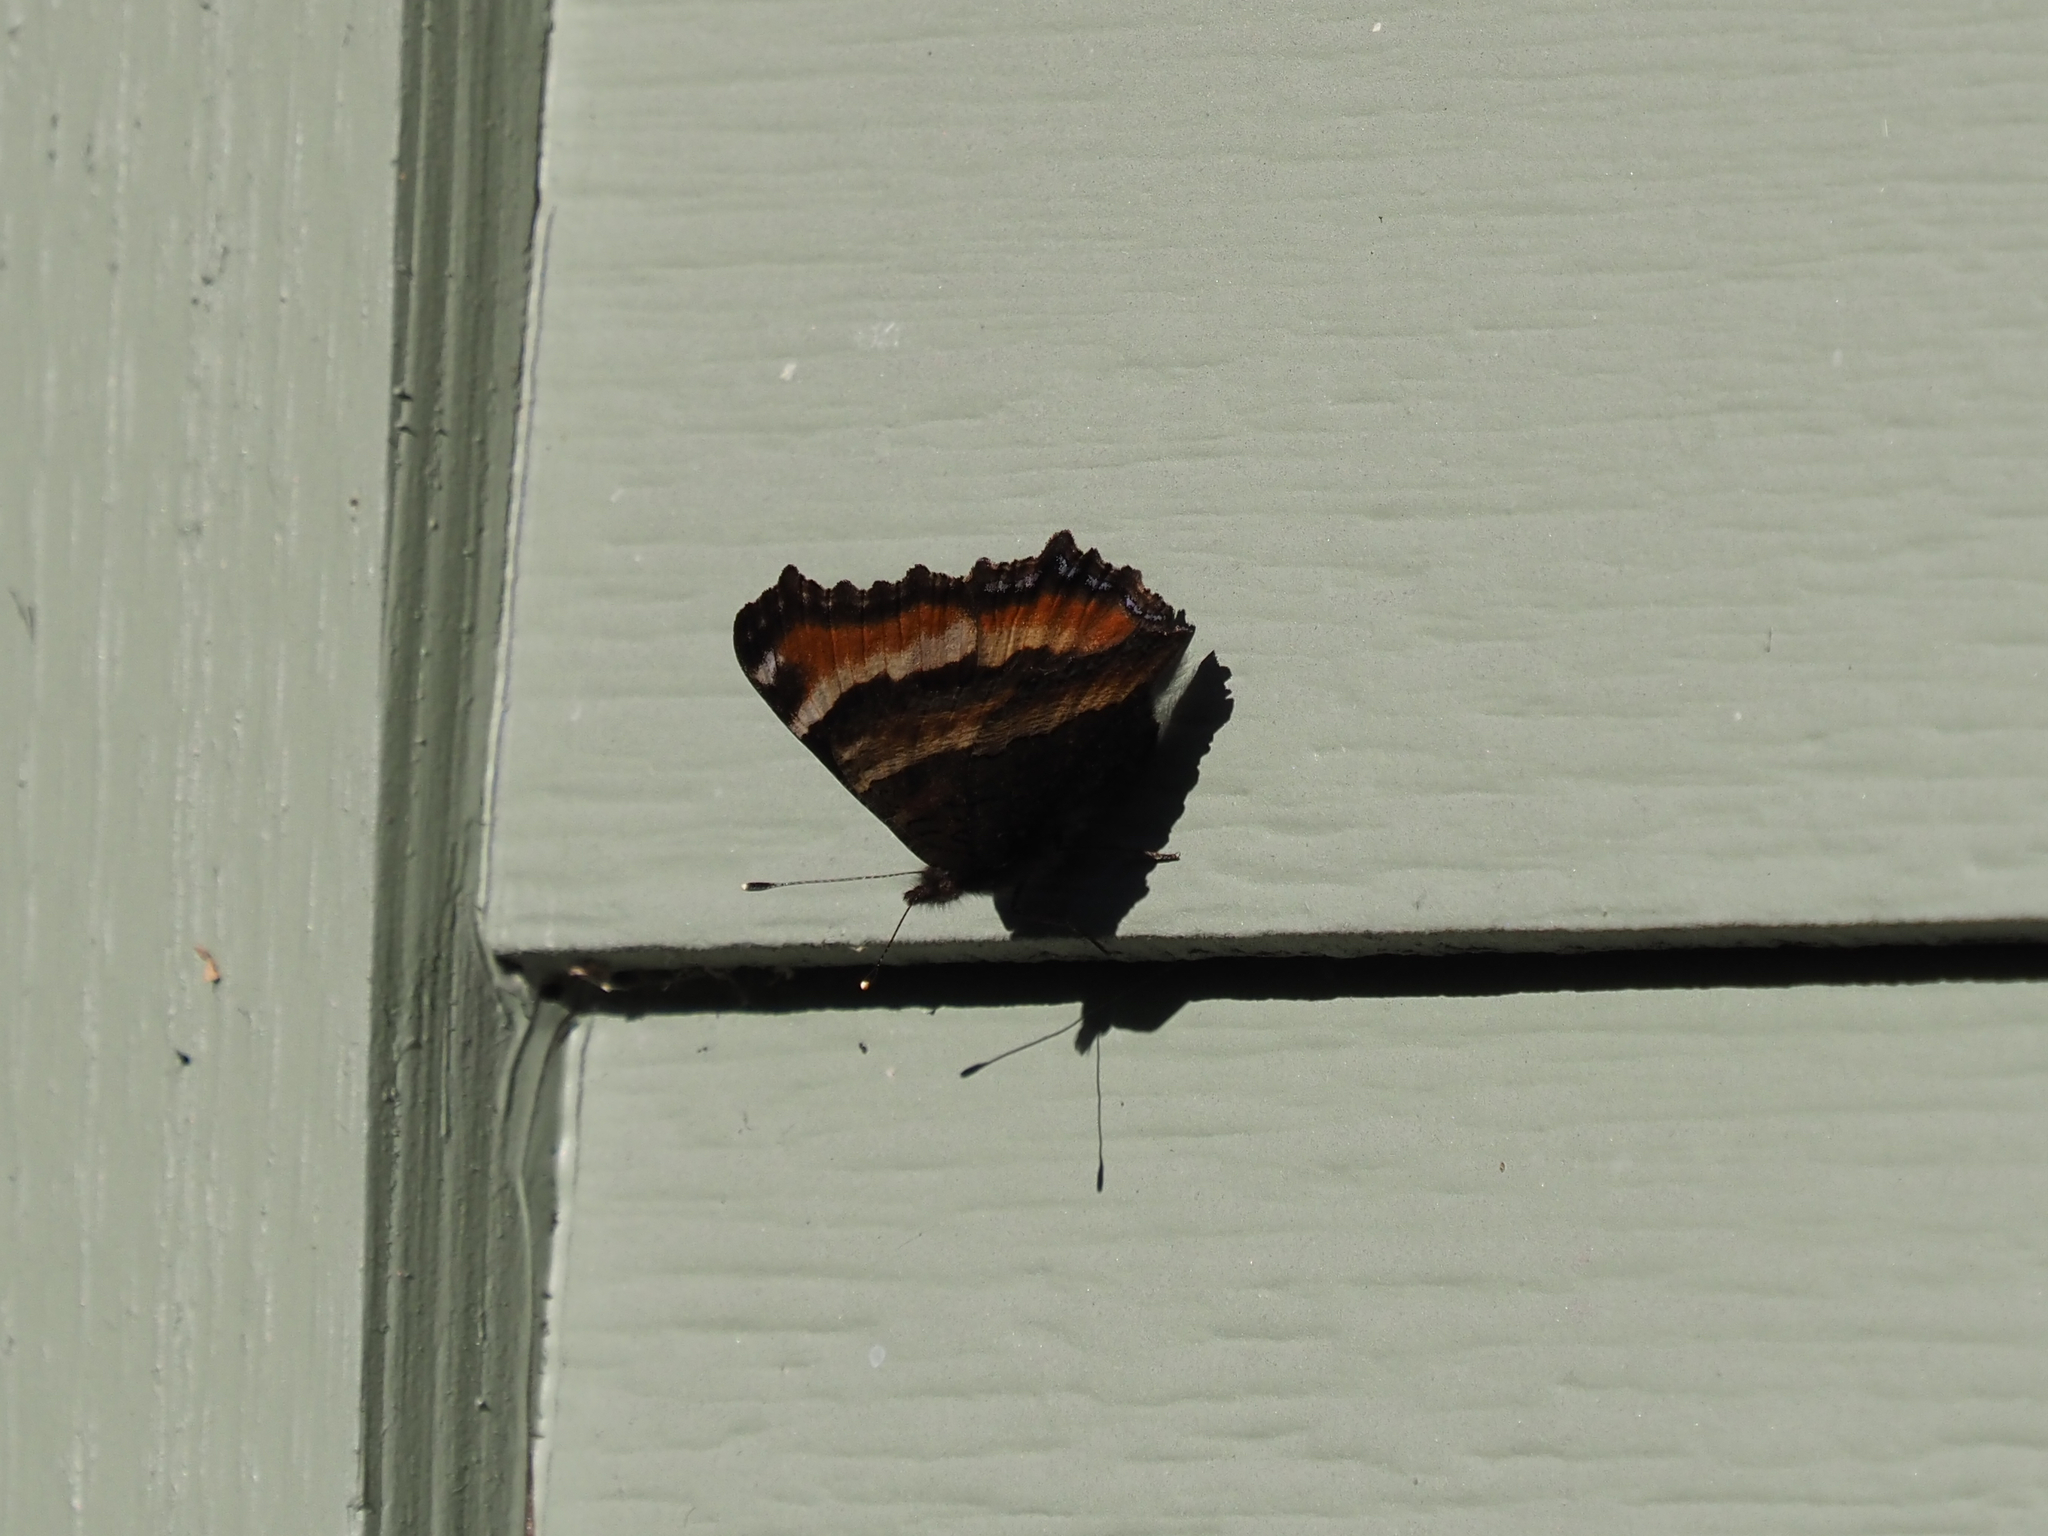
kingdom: Animalia
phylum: Arthropoda
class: Insecta
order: Lepidoptera
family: Nymphalidae
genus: Aglais
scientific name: Aglais milberti
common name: Milbert's tortoiseshell
